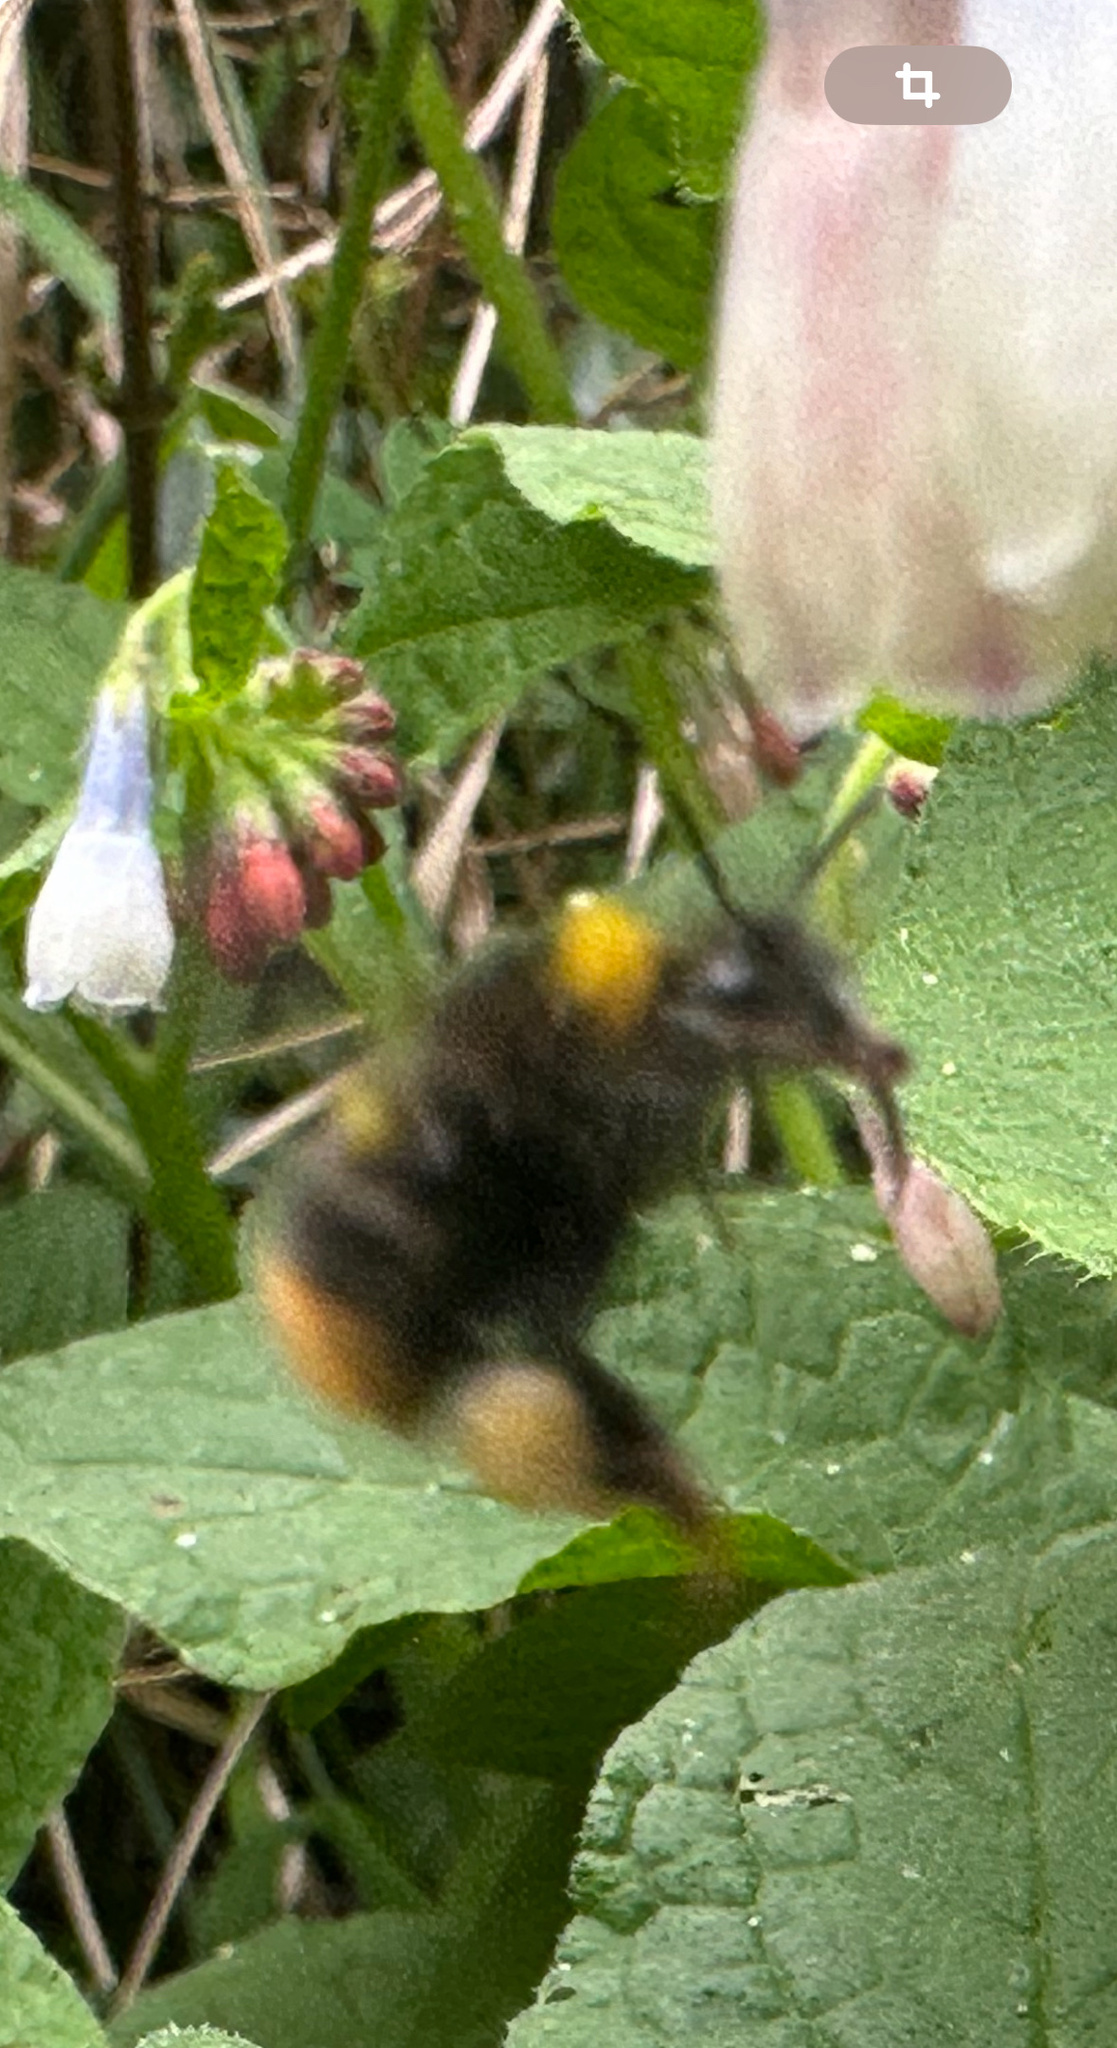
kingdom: Animalia
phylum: Arthropoda
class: Insecta
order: Hymenoptera
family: Apidae
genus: Bombus
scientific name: Bombus pratorum
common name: Early humble-bee
